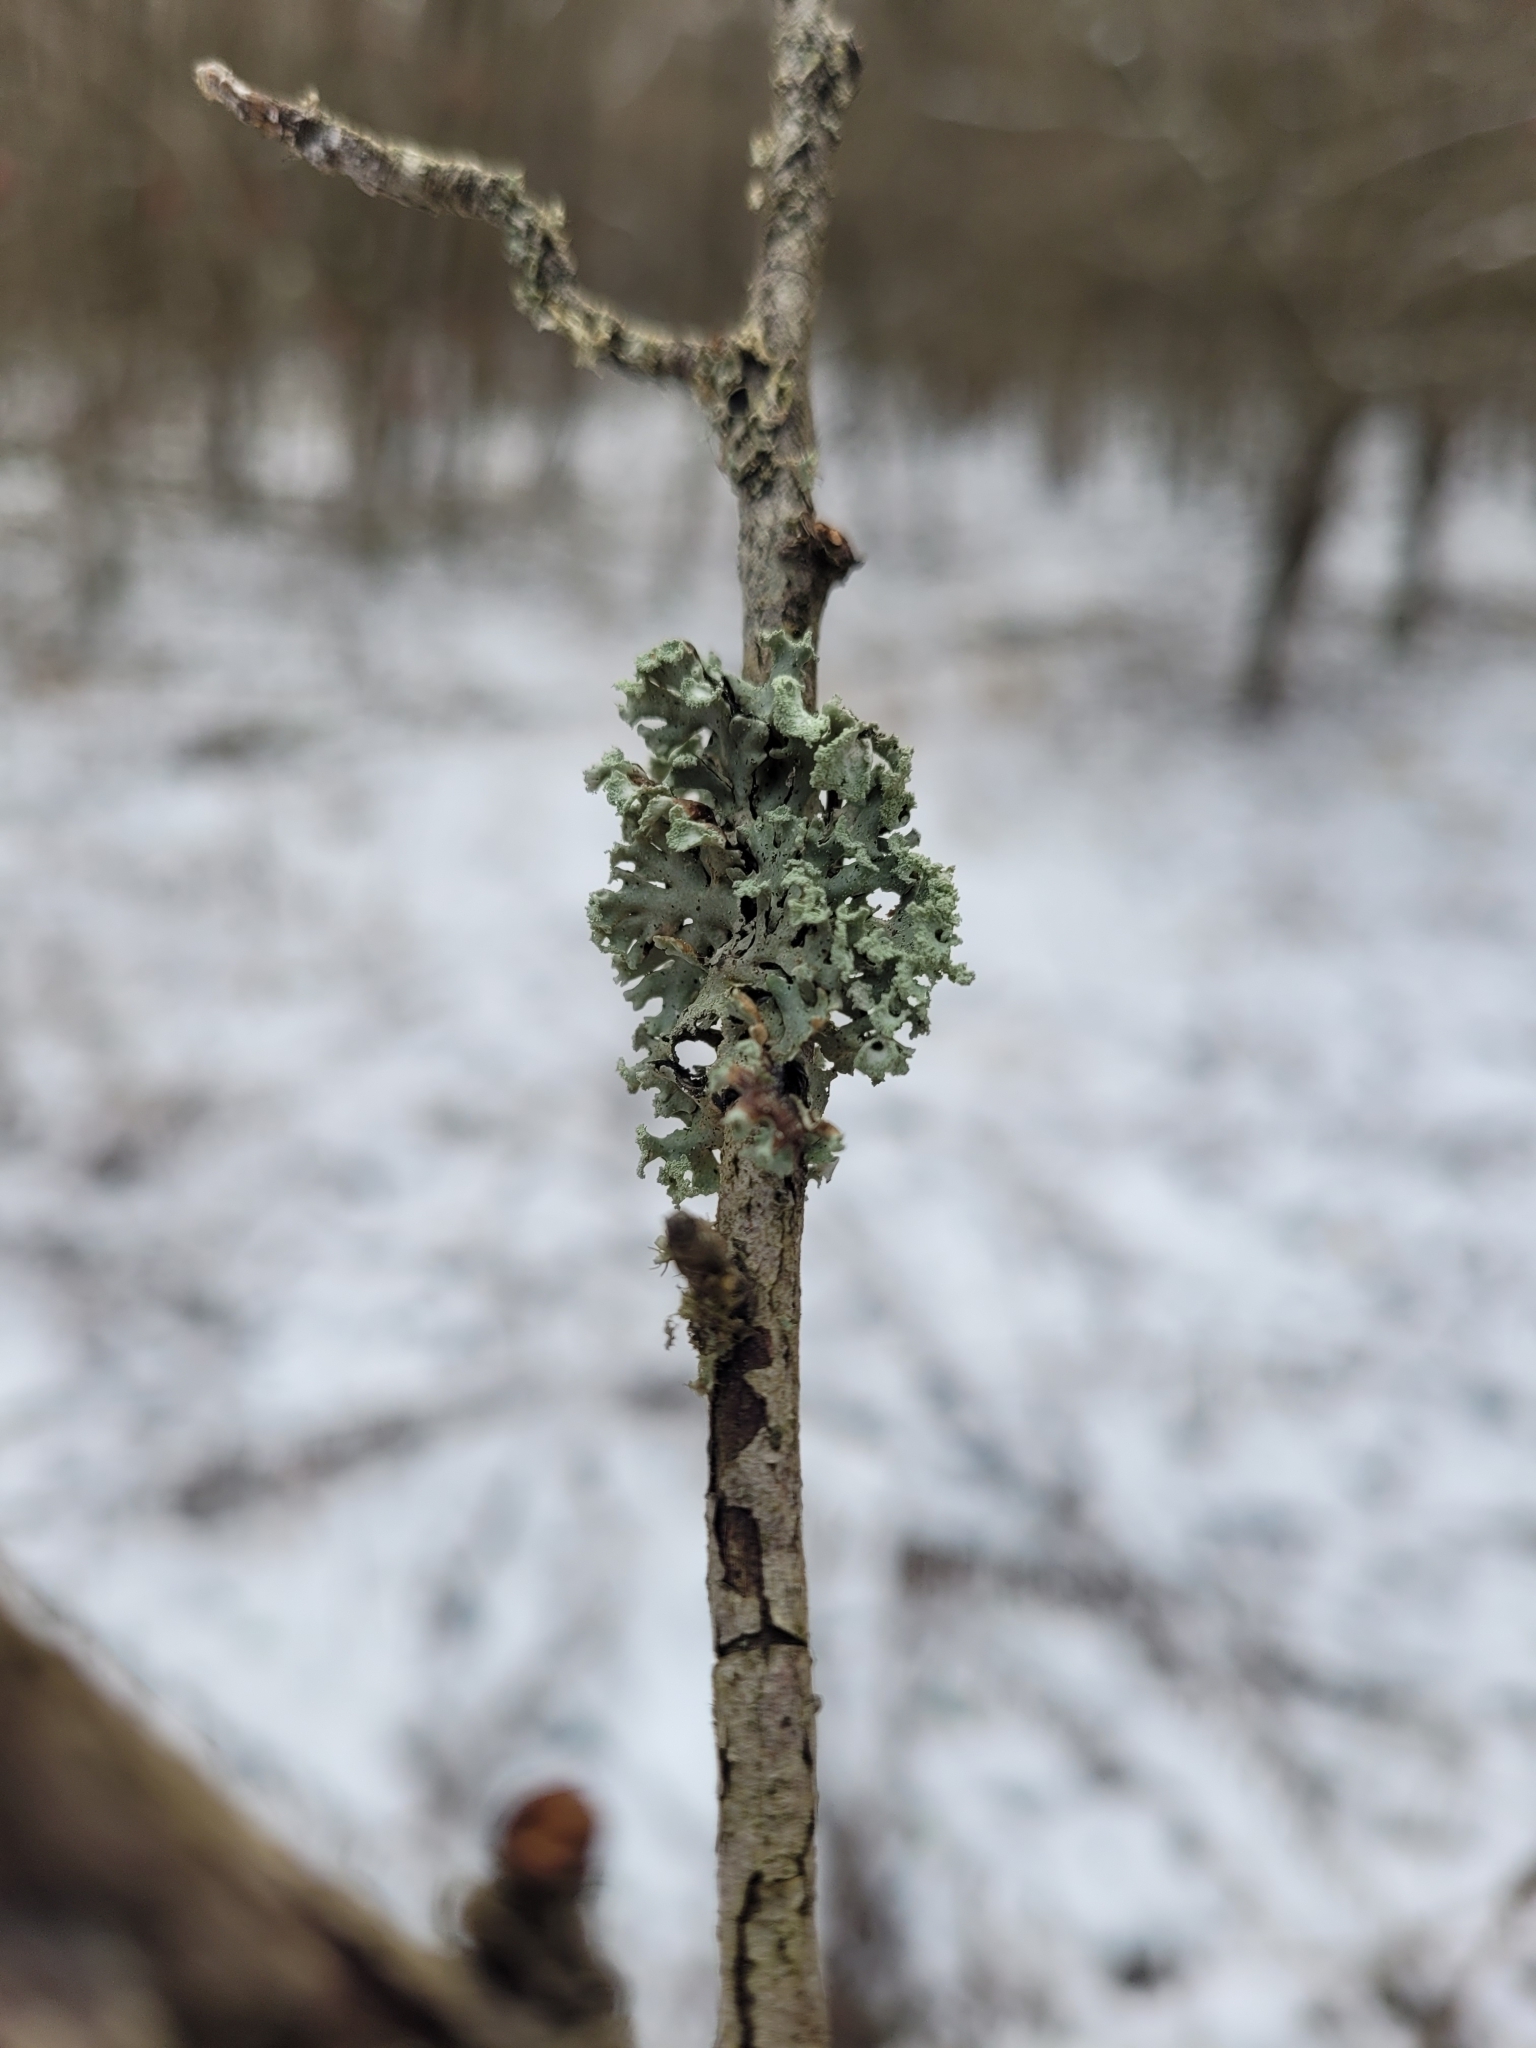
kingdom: Fungi
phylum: Ascomycota
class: Lecanoromycetes
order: Lecanorales
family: Parmeliaceae
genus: Hypogymnia
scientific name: Hypogymnia physodes
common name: Dark crottle
